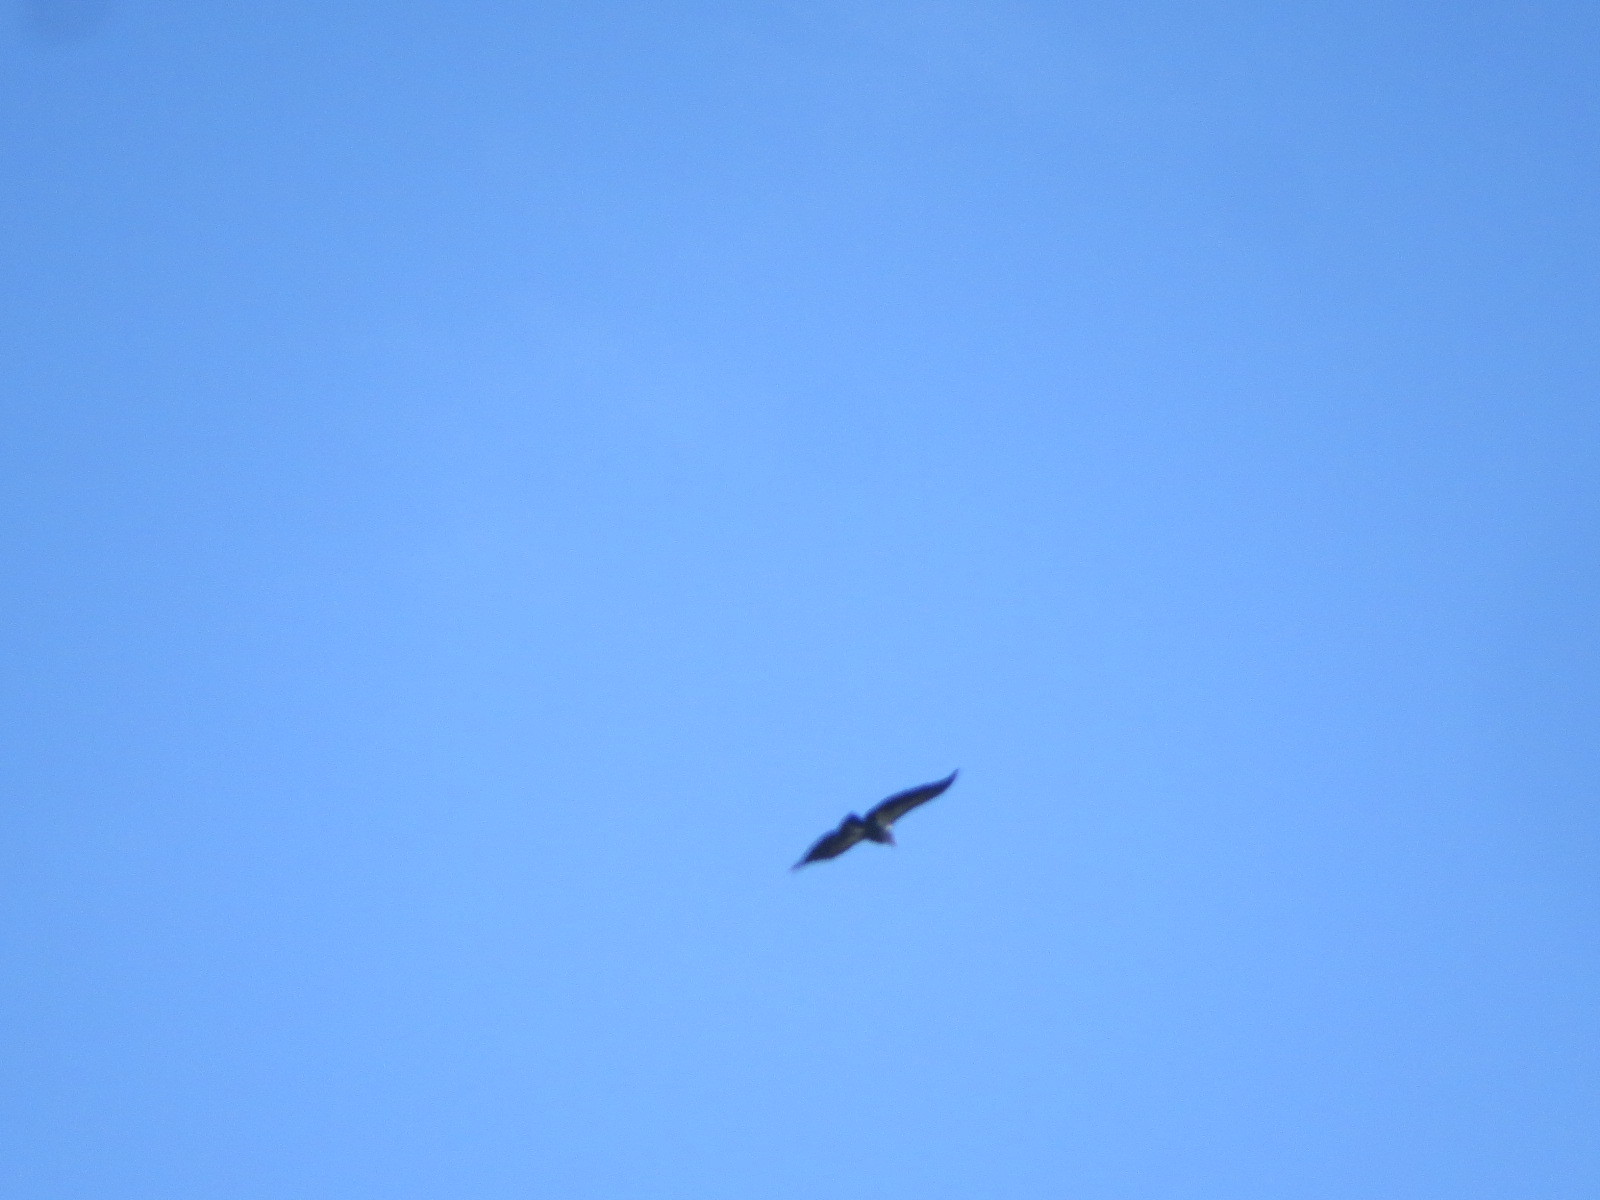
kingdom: Animalia
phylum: Chordata
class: Aves
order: Accipitriformes
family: Cathartidae
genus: Gymnogyps
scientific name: Gymnogyps californianus
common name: California condor
